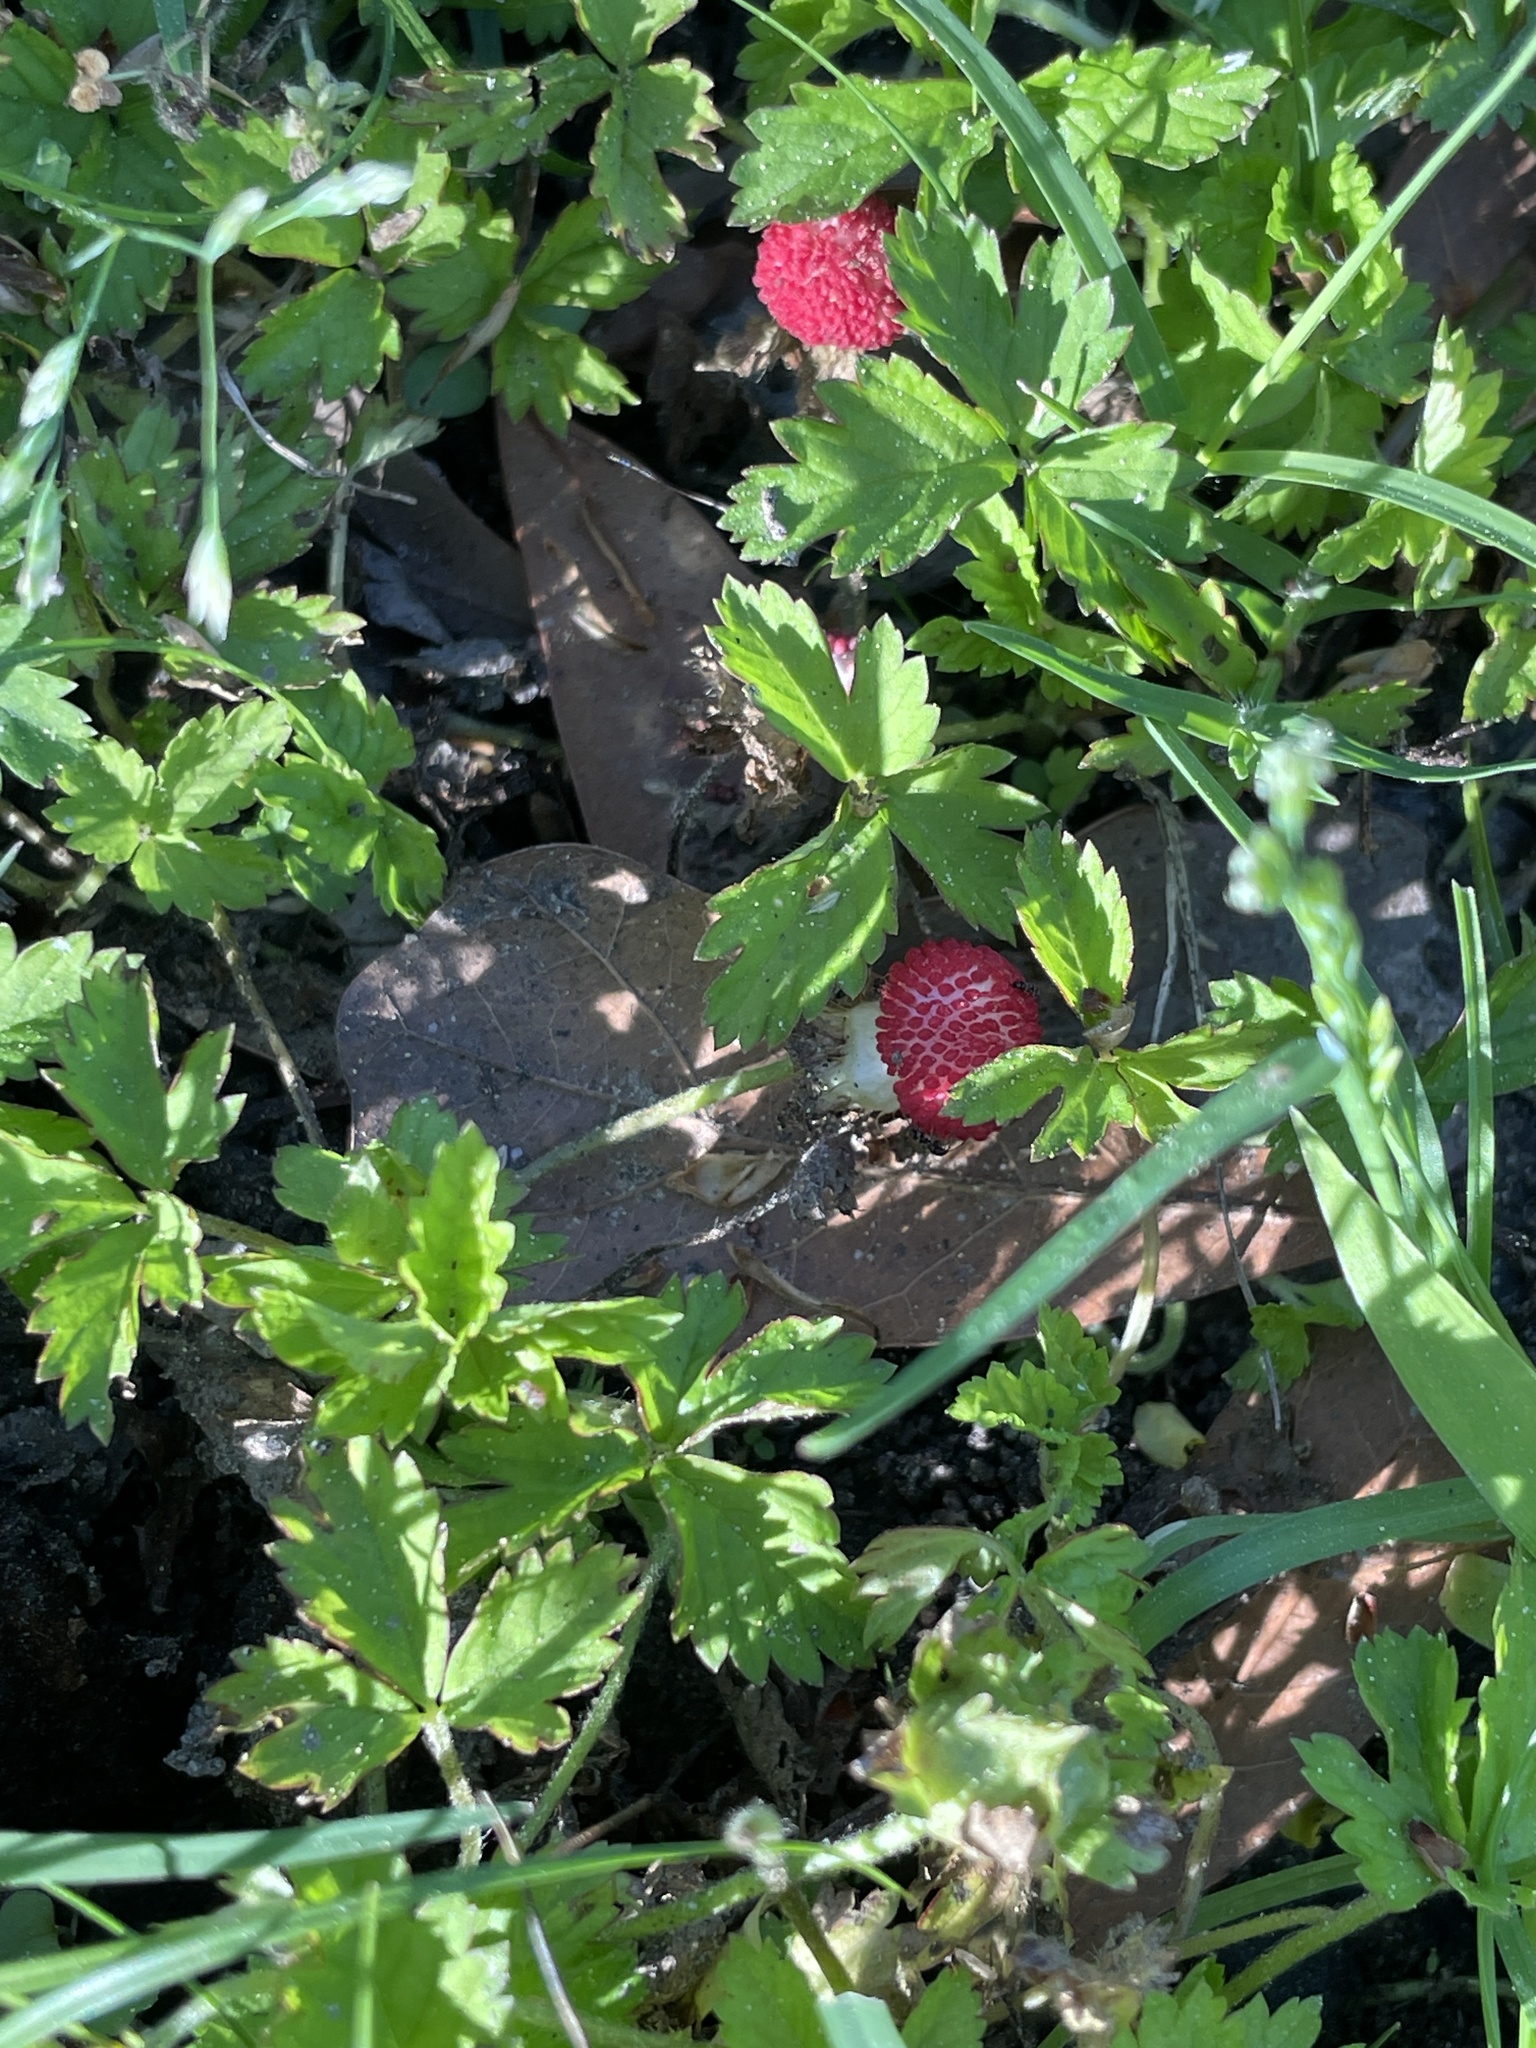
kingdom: Plantae
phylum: Tracheophyta
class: Magnoliopsida
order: Rosales
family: Rosaceae
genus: Potentilla
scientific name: Potentilla indica
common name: Yellow-flowered strawberry
